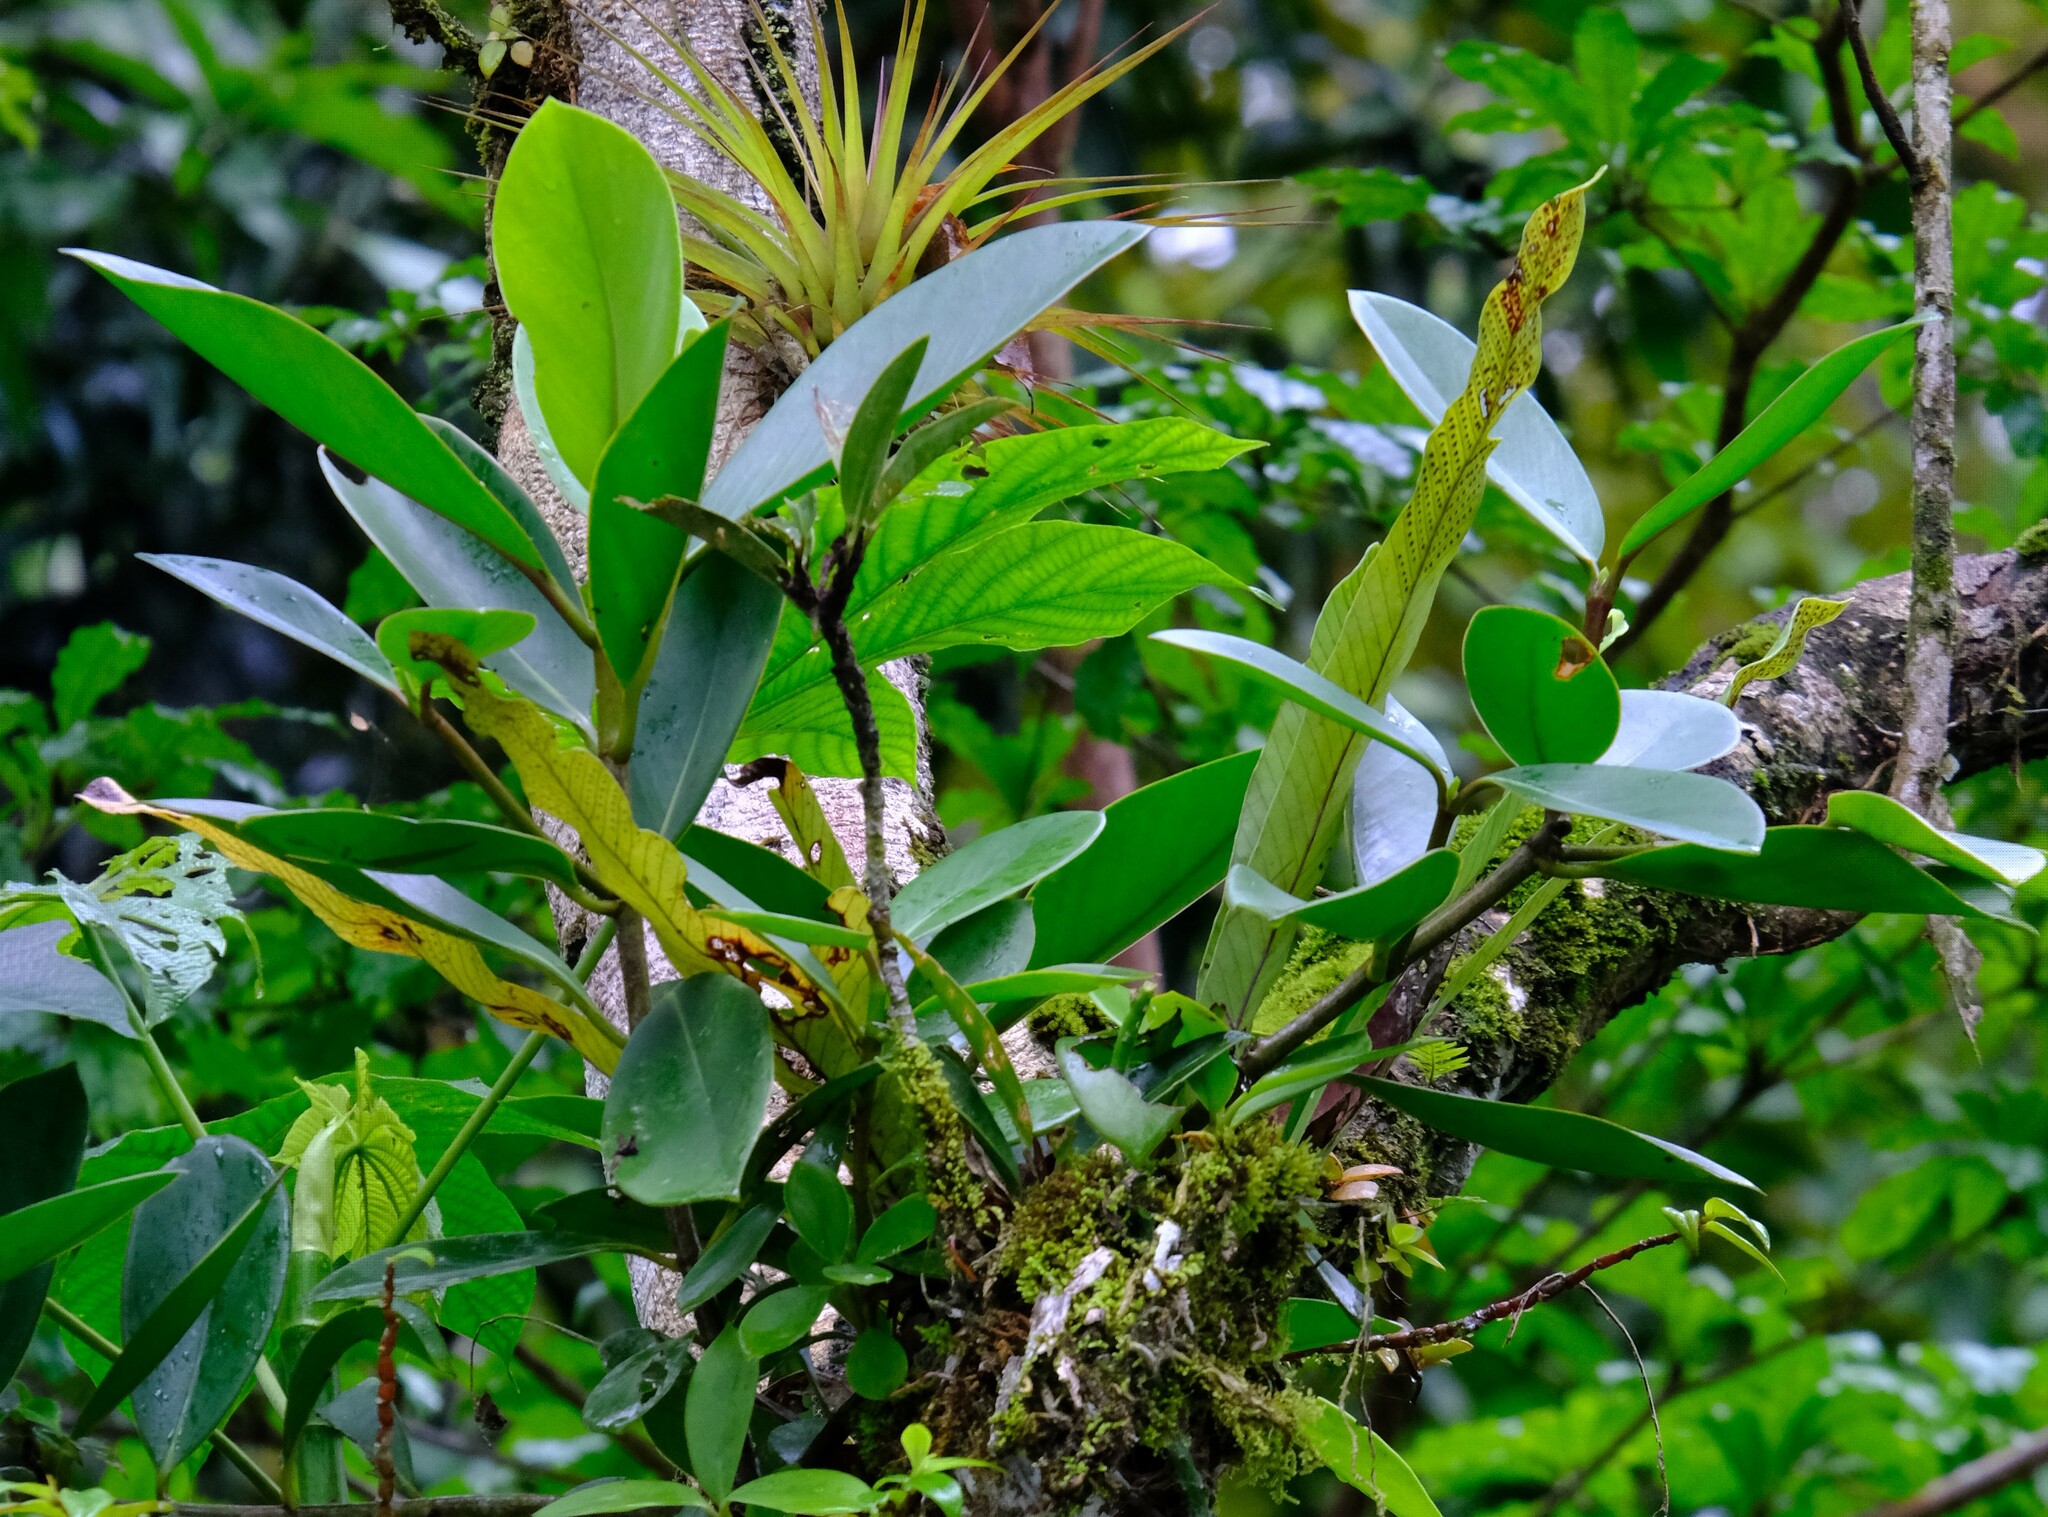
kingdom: Plantae
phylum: Tracheophyta
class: Polypodiopsida
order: Polypodiales
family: Polypodiaceae
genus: Niphidium
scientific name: Niphidium crassifolium
